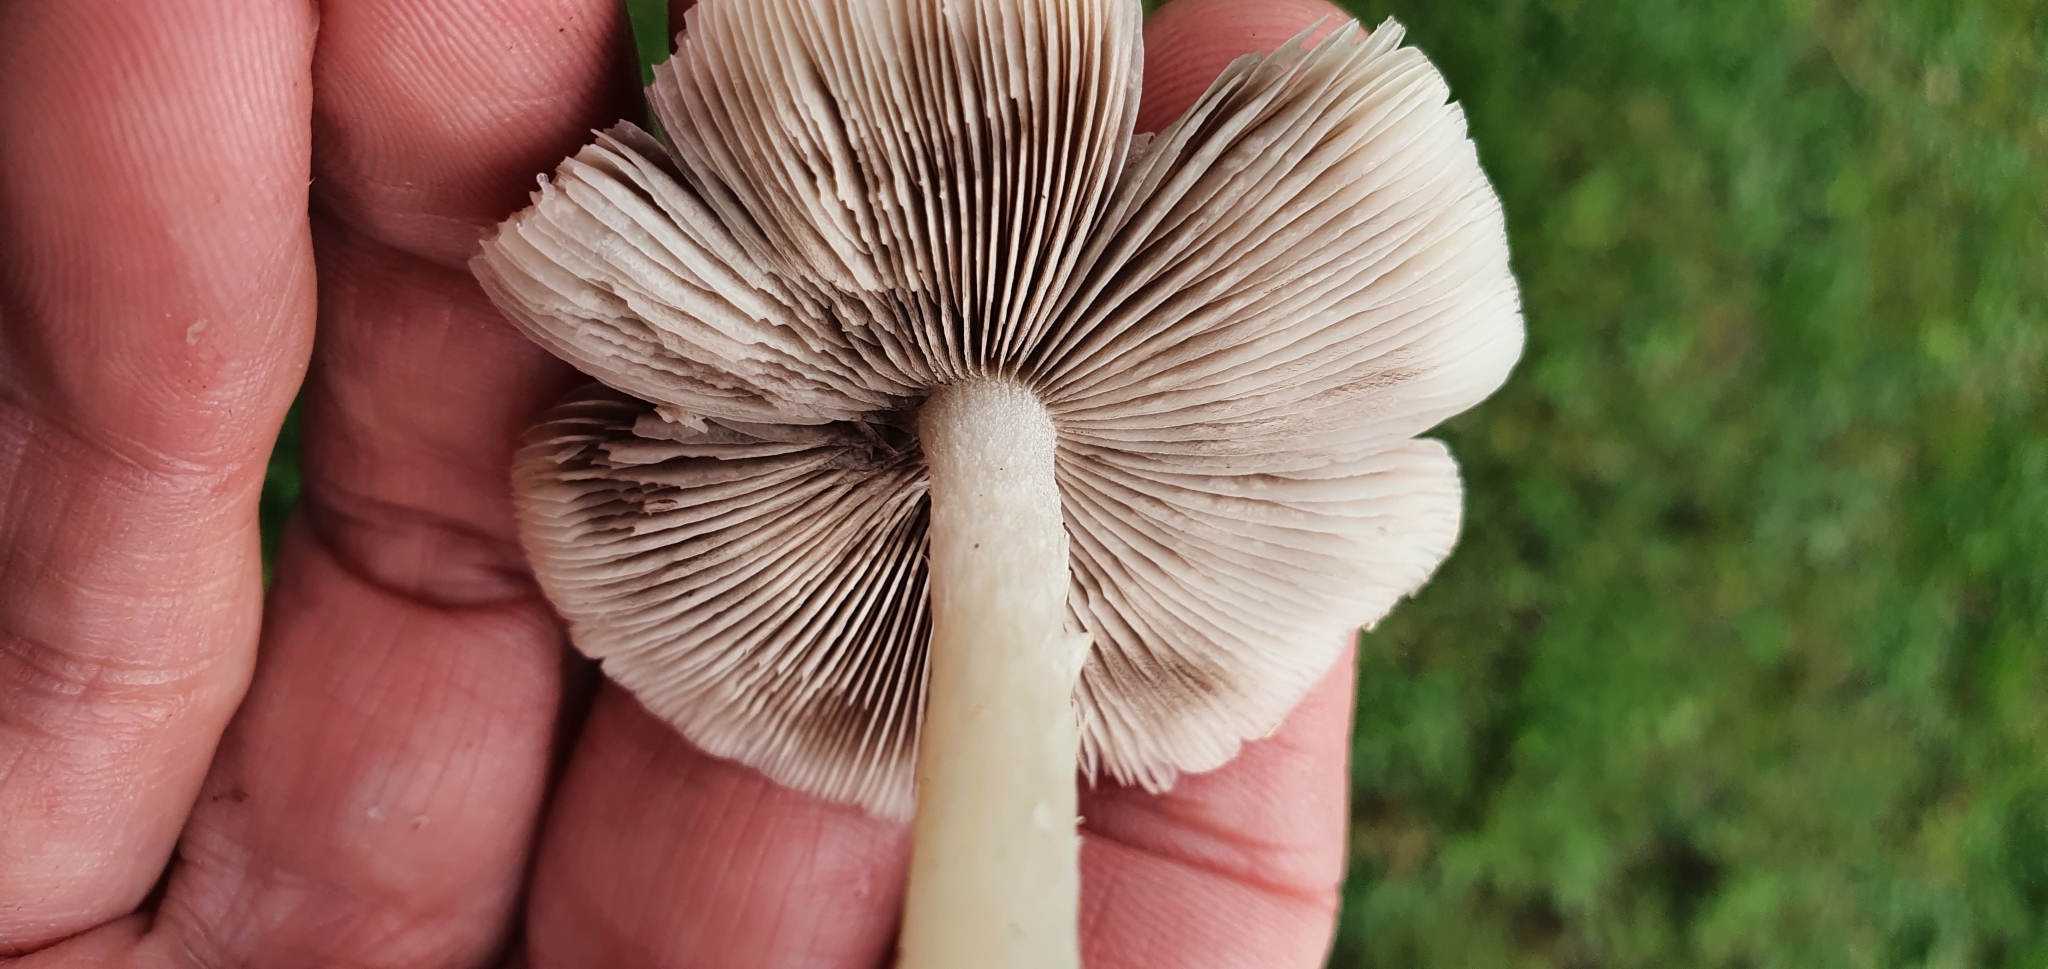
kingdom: Fungi
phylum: Basidiomycota
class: Agaricomycetes
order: Agaricales
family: Psathyrellaceae
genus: Candolleomyces
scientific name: Candolleomyces candolleanus
